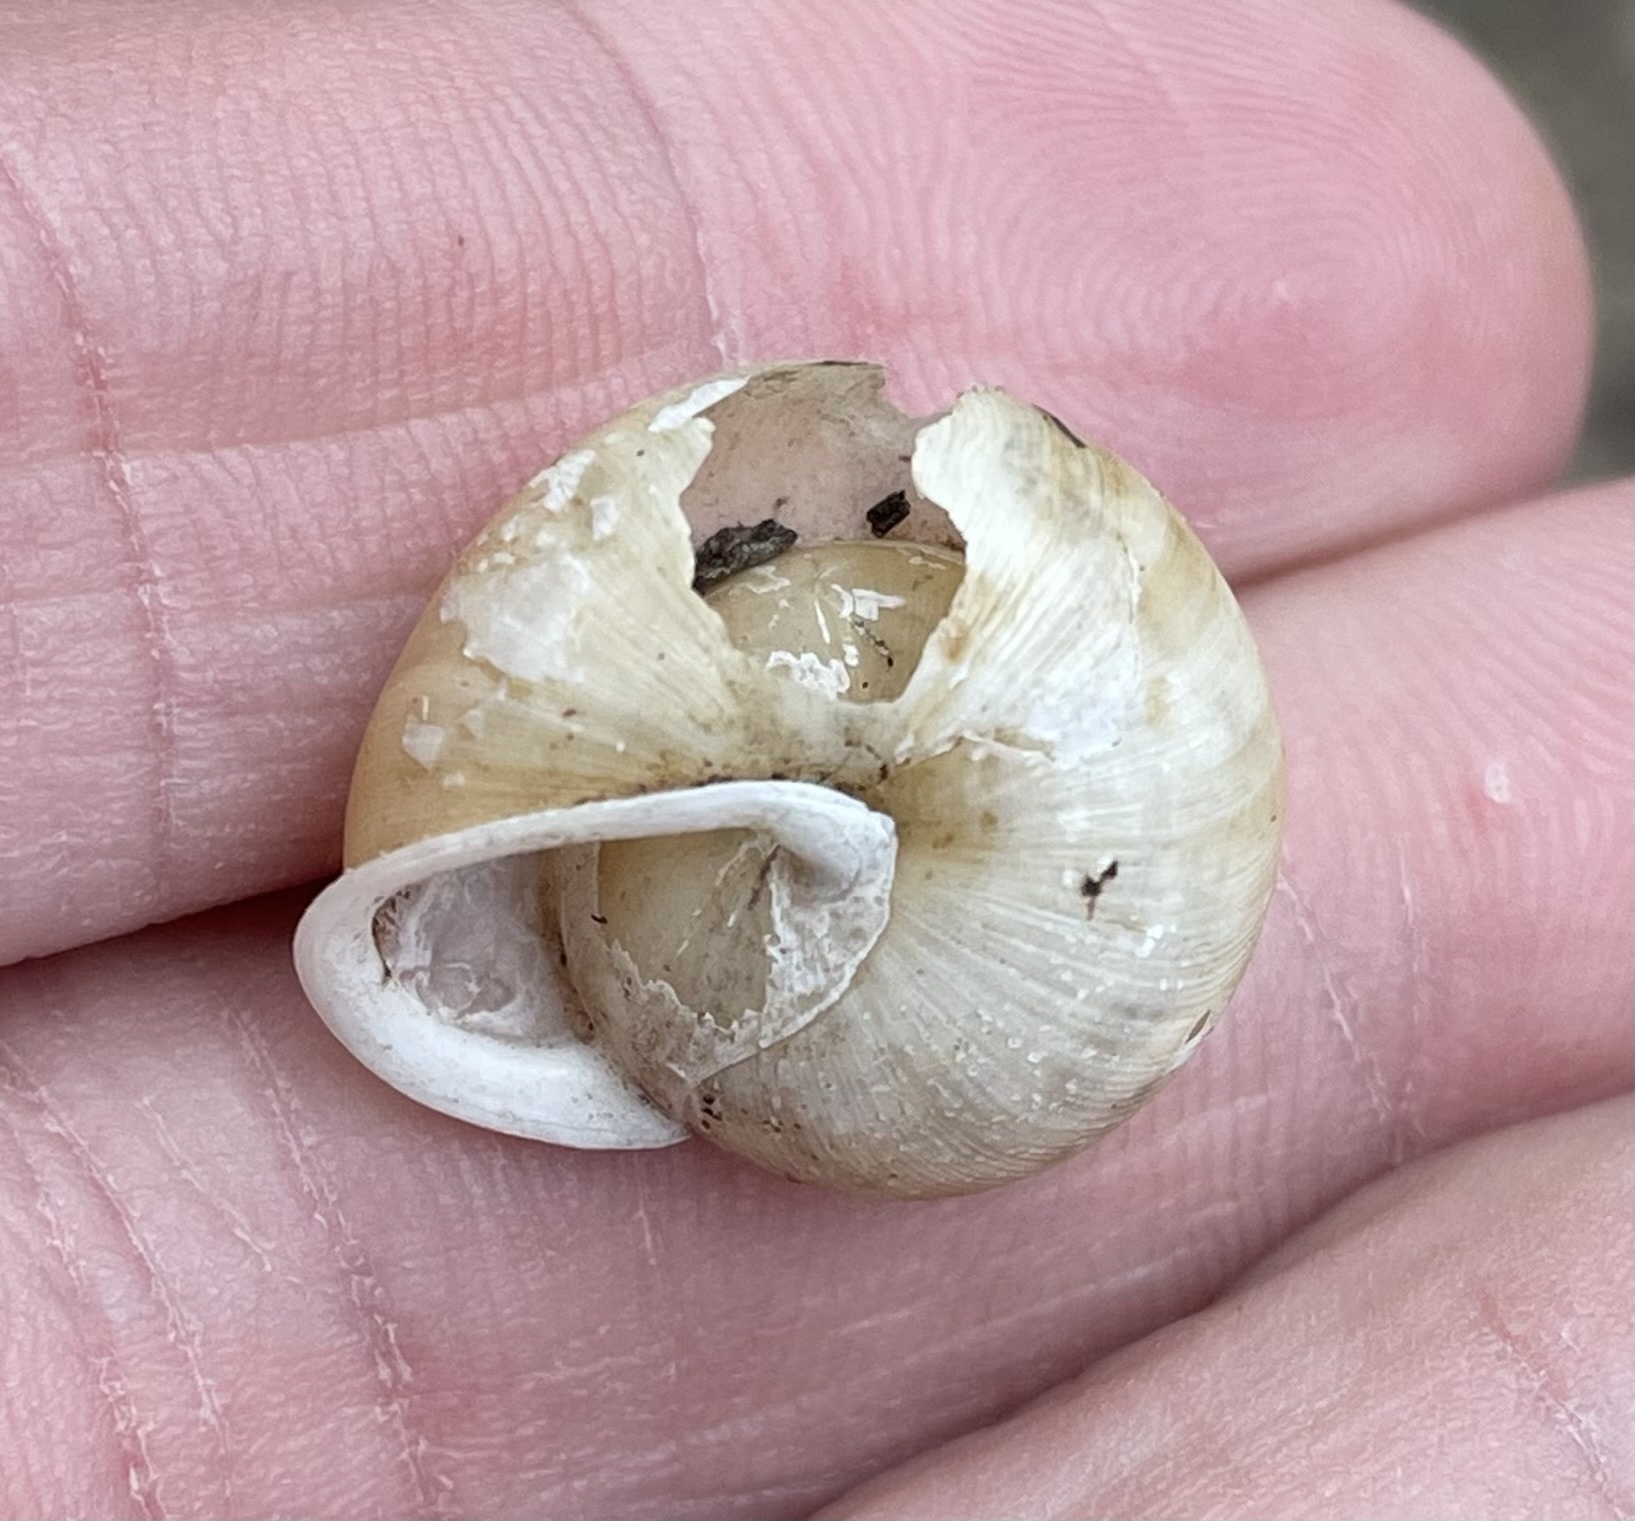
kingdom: Animalia
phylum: Mollusca
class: Gastropoda
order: Stylommatophora
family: Polygyridae
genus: Patera
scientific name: Patera roemeri
